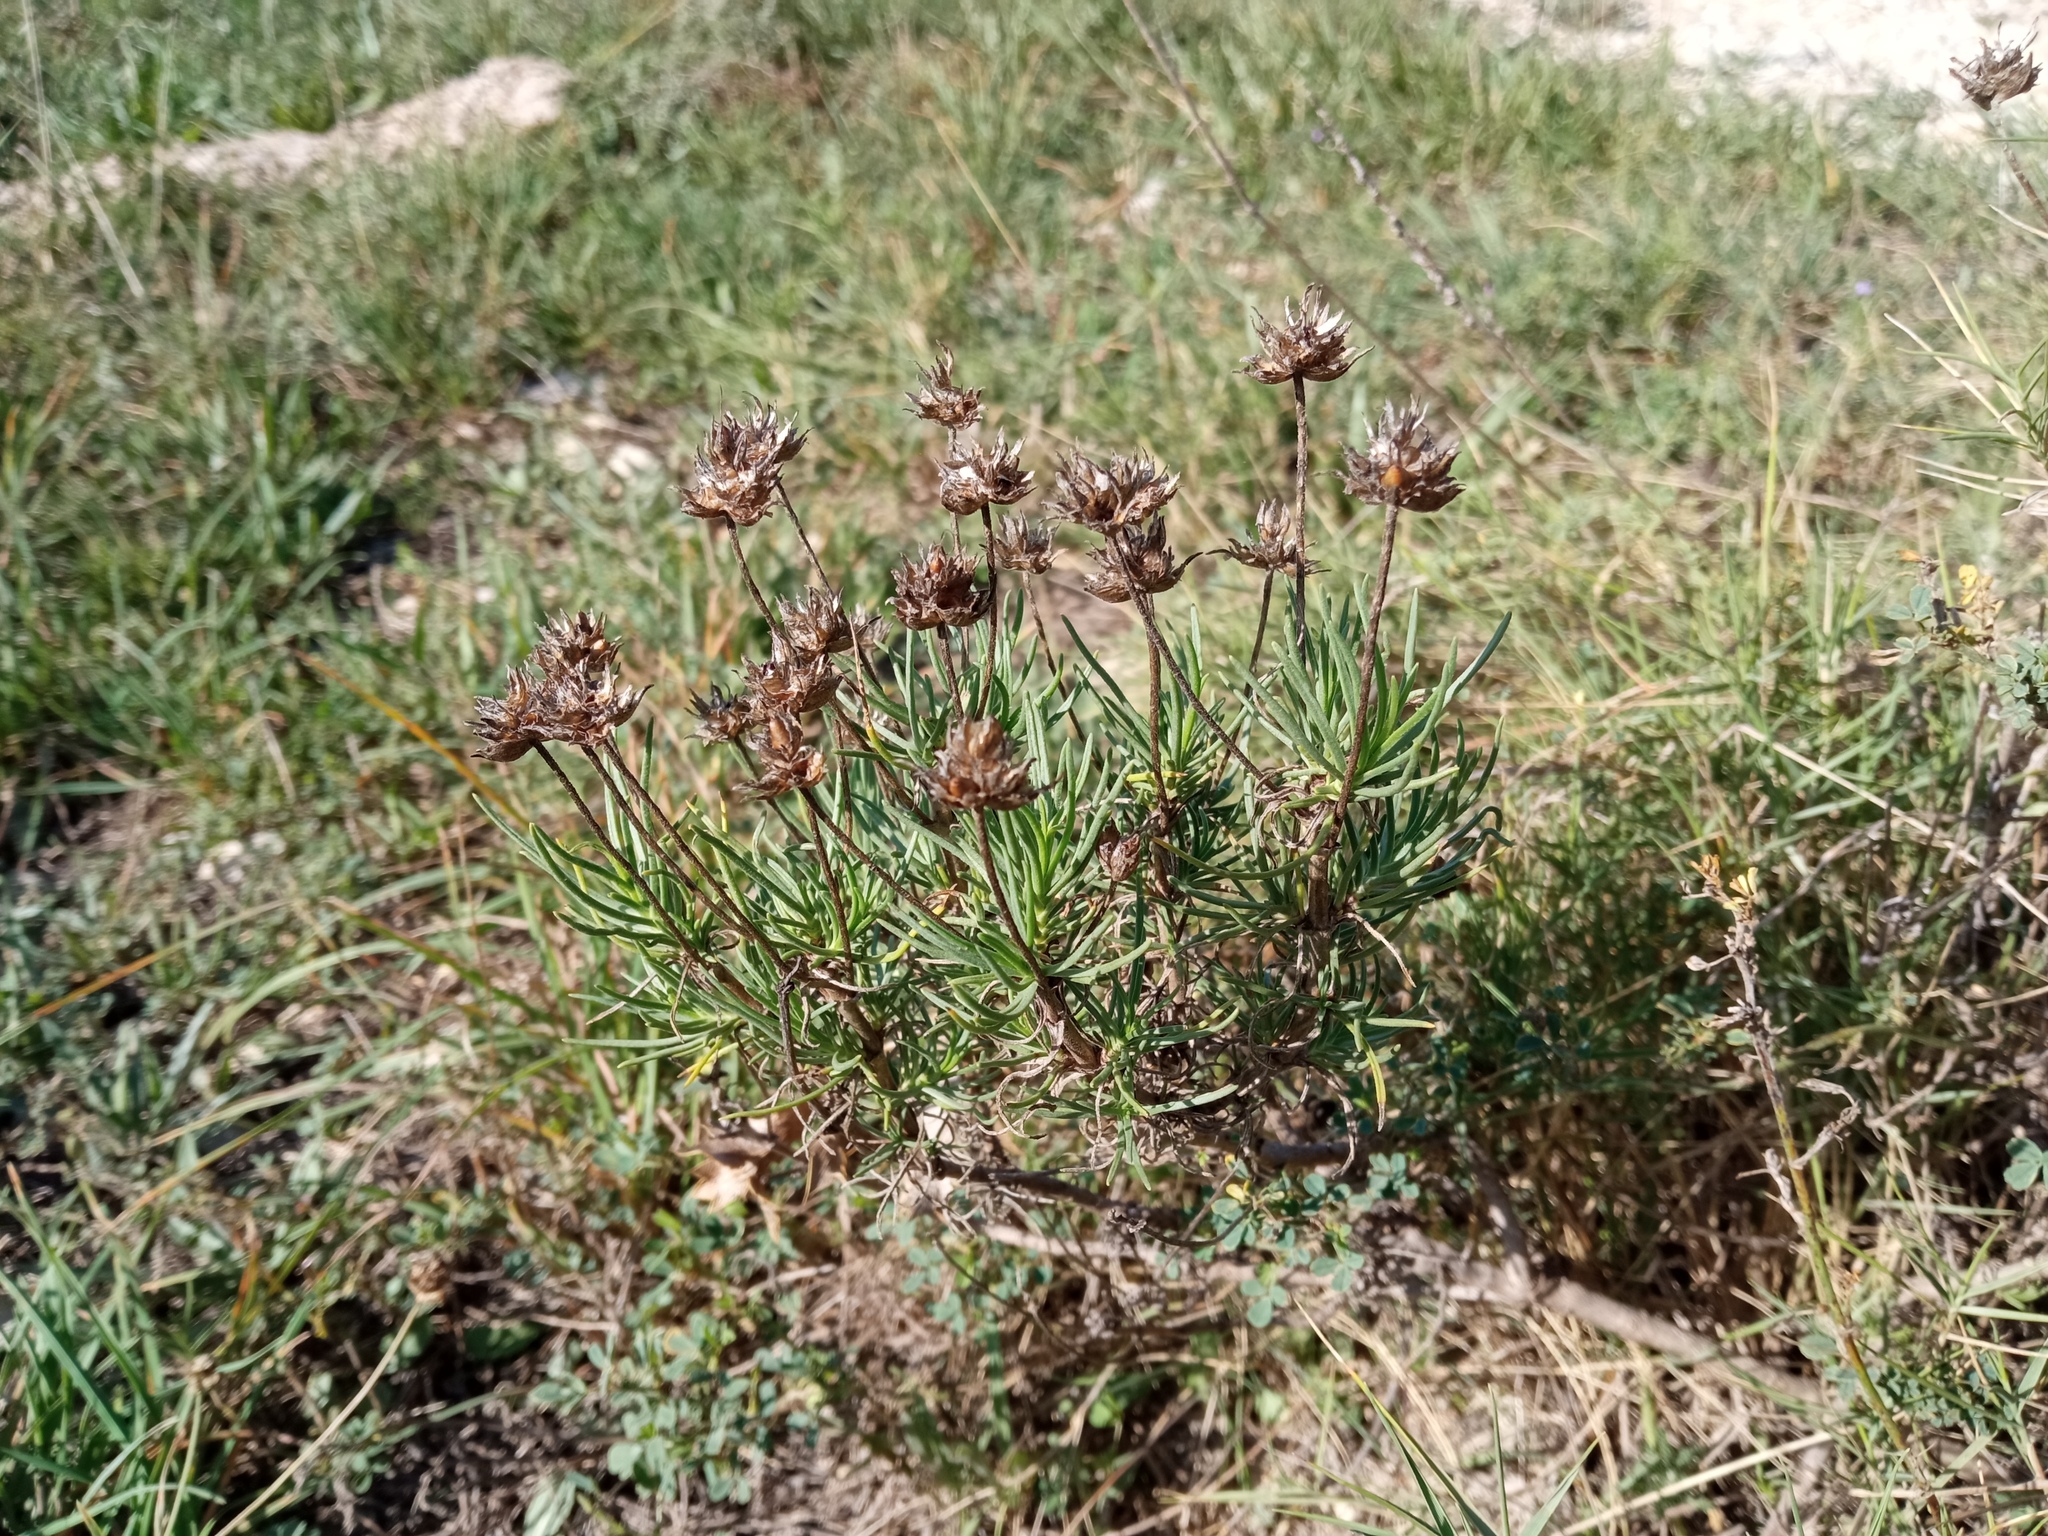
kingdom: Plantae
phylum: Tracheophyta
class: Magnoliopsida
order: Lamiales
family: Plantaginaceae
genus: Plantago
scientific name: Plantago sempervirens
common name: Shrubby plantain
